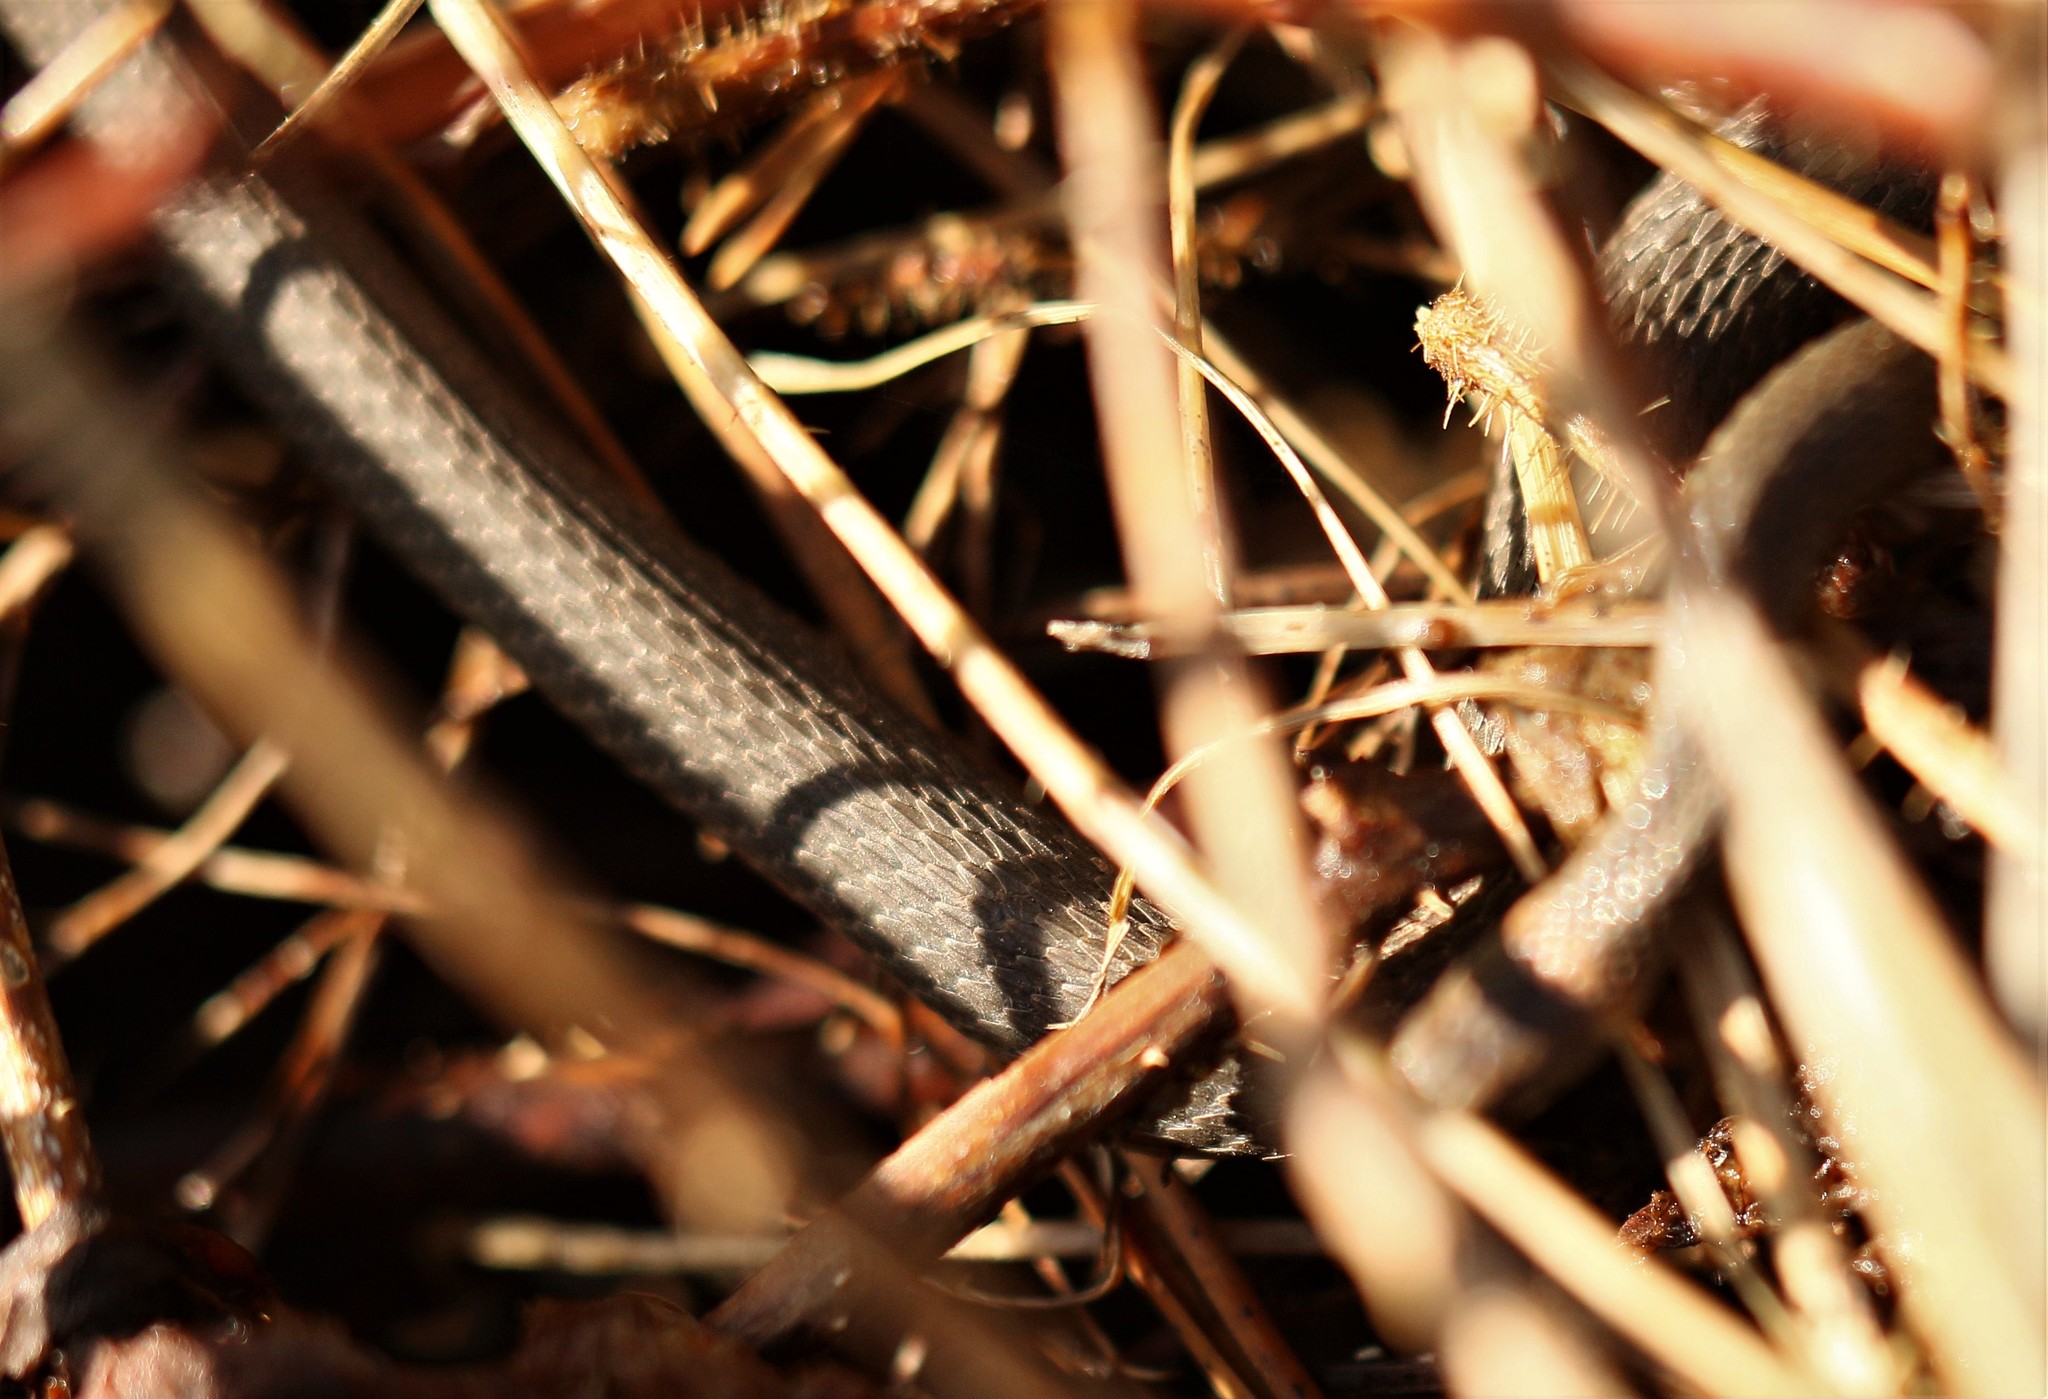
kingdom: Animalia
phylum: Chordata
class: Squamata
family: Colubridae
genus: Storeria
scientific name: Storeria occipitomaculata
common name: Redbelly snake
